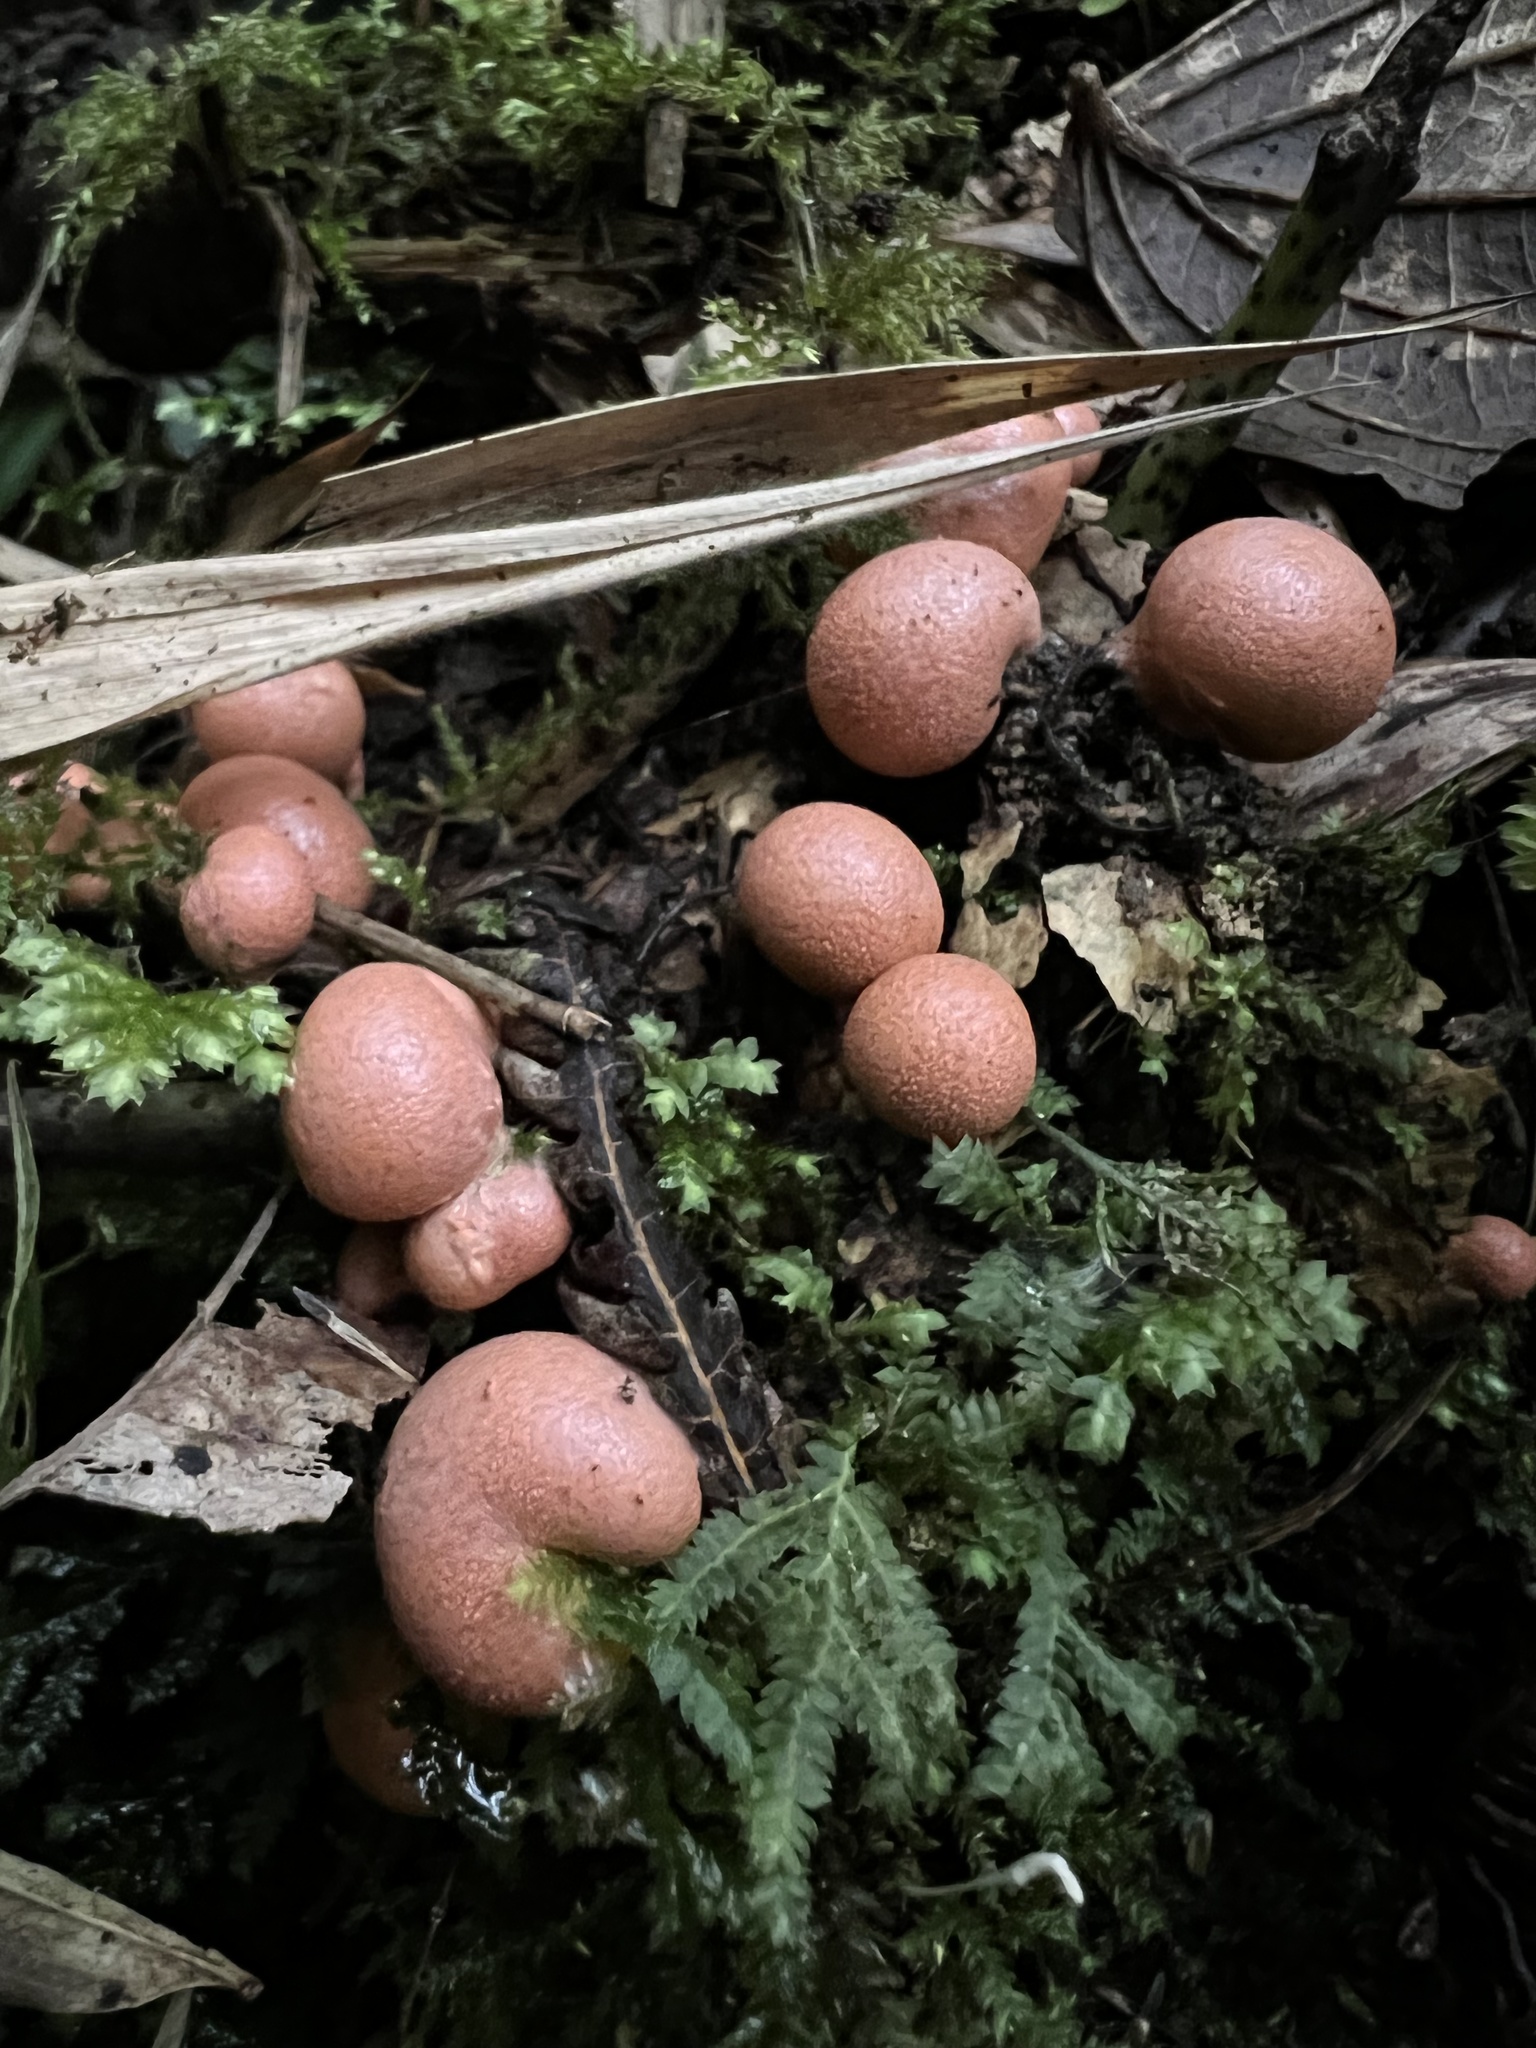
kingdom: Protozoa
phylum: Mycetozoa
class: Myxomycetes
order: Cribrariales
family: Tubiferaceae
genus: Lycogala
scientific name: Lycogala epidendrum
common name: Wolf's milk
